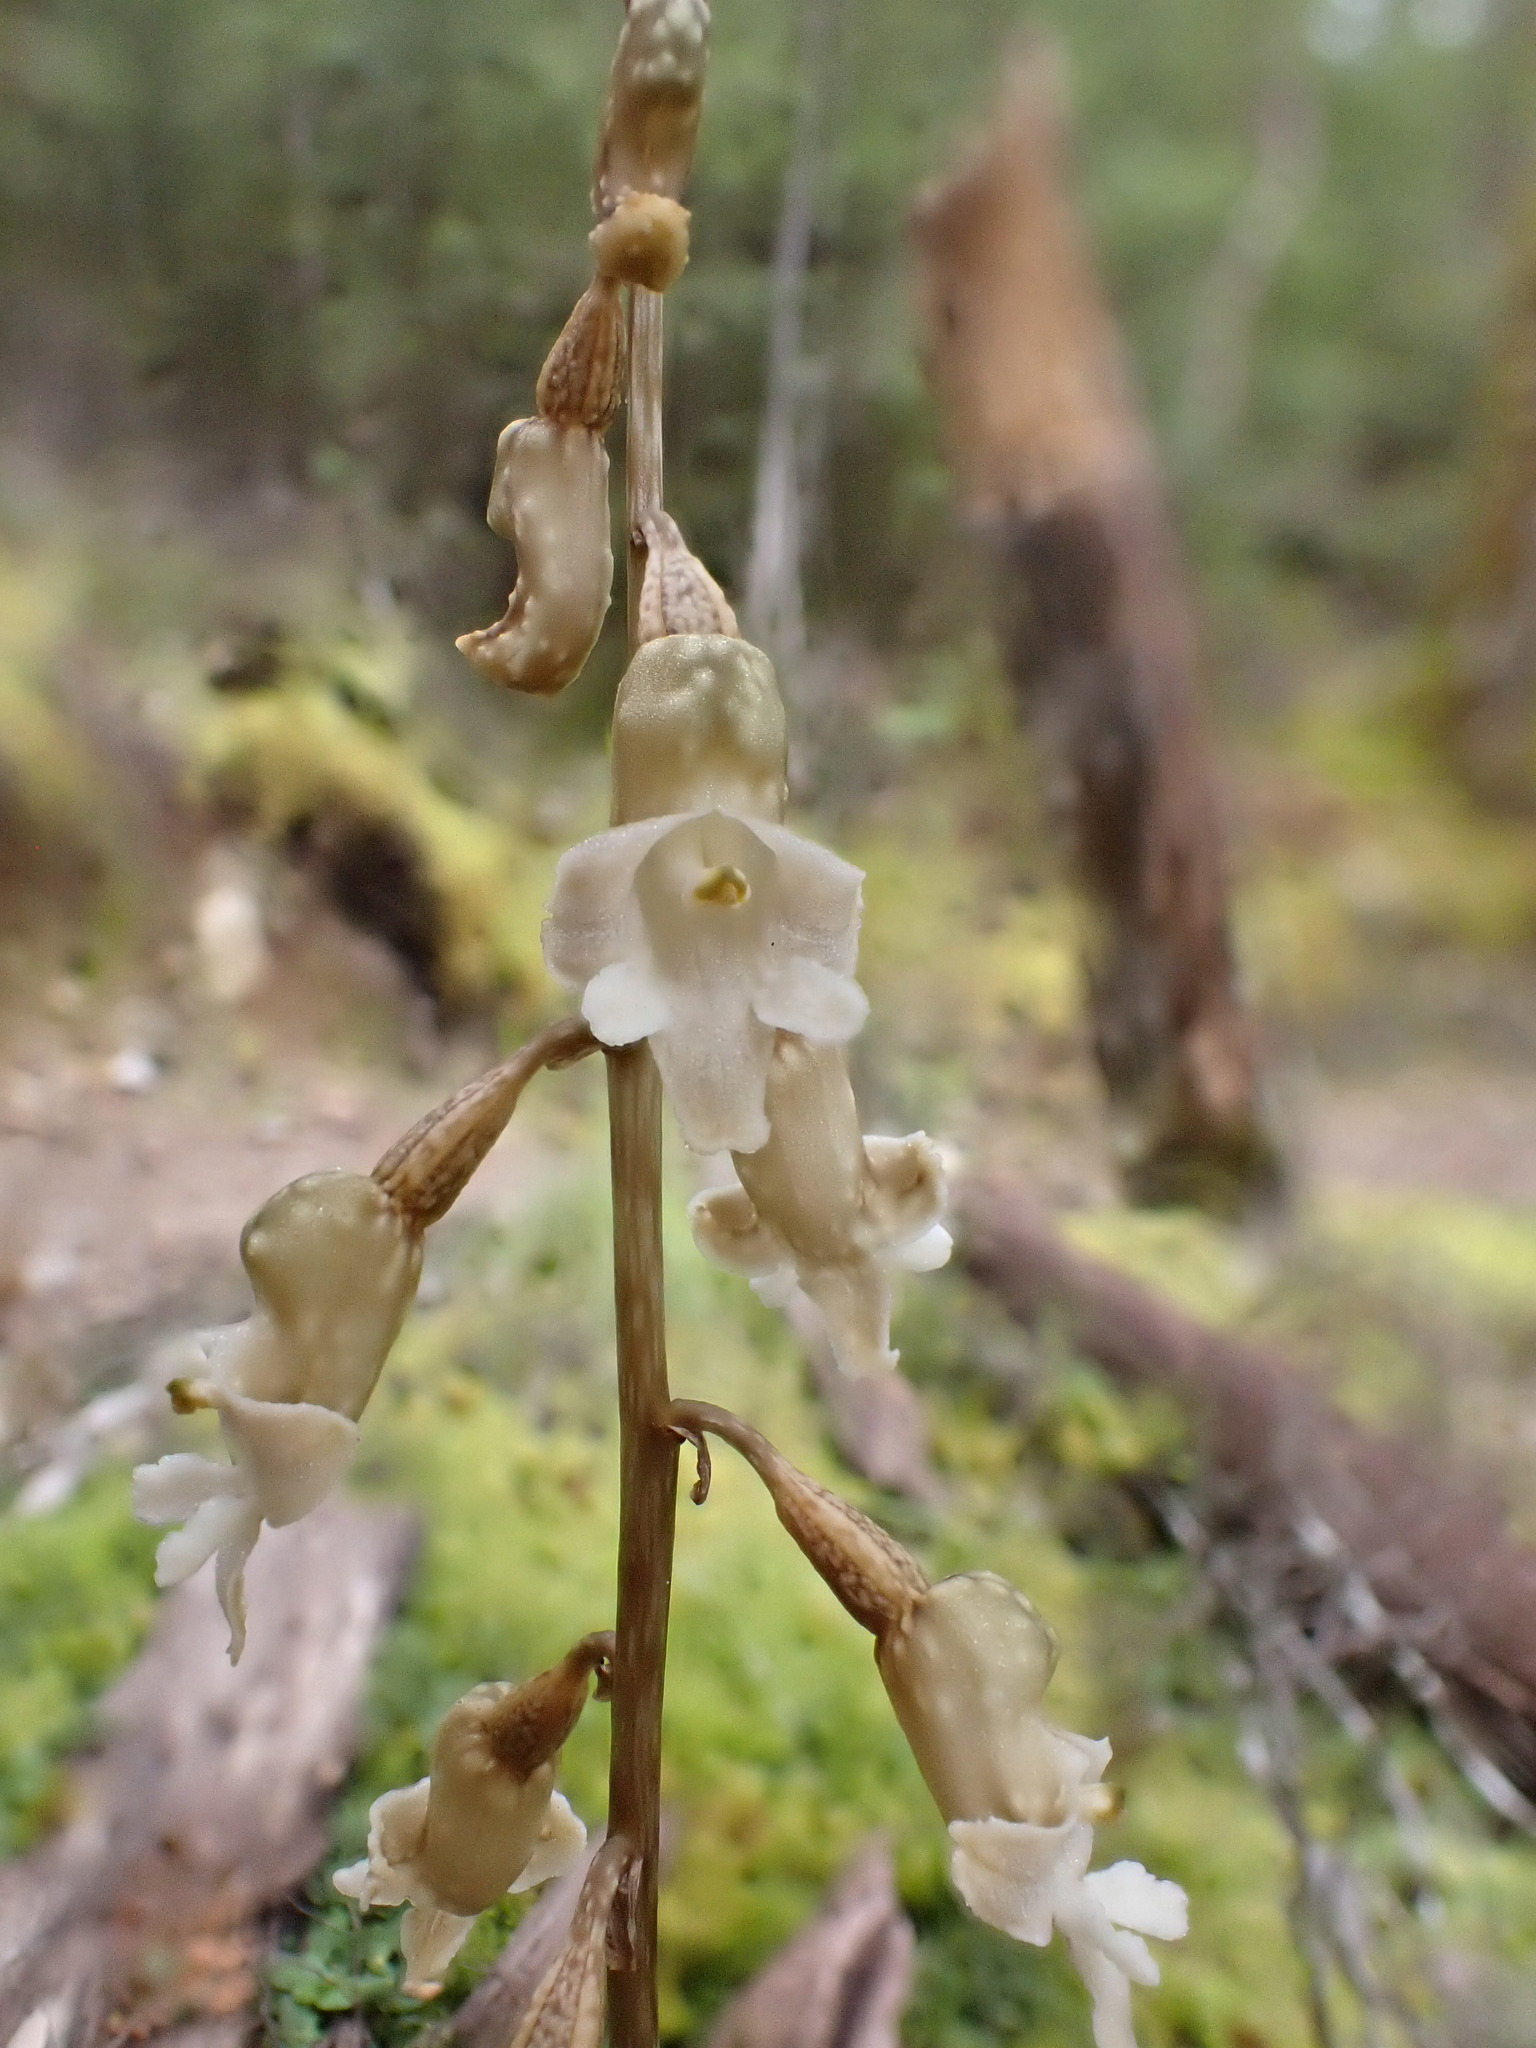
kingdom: Plantae
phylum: Tracheophyta
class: Liliopsida
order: Asparagales
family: Orchidaceae
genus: Gastrodia
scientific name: Gastrodia cunninghamii
